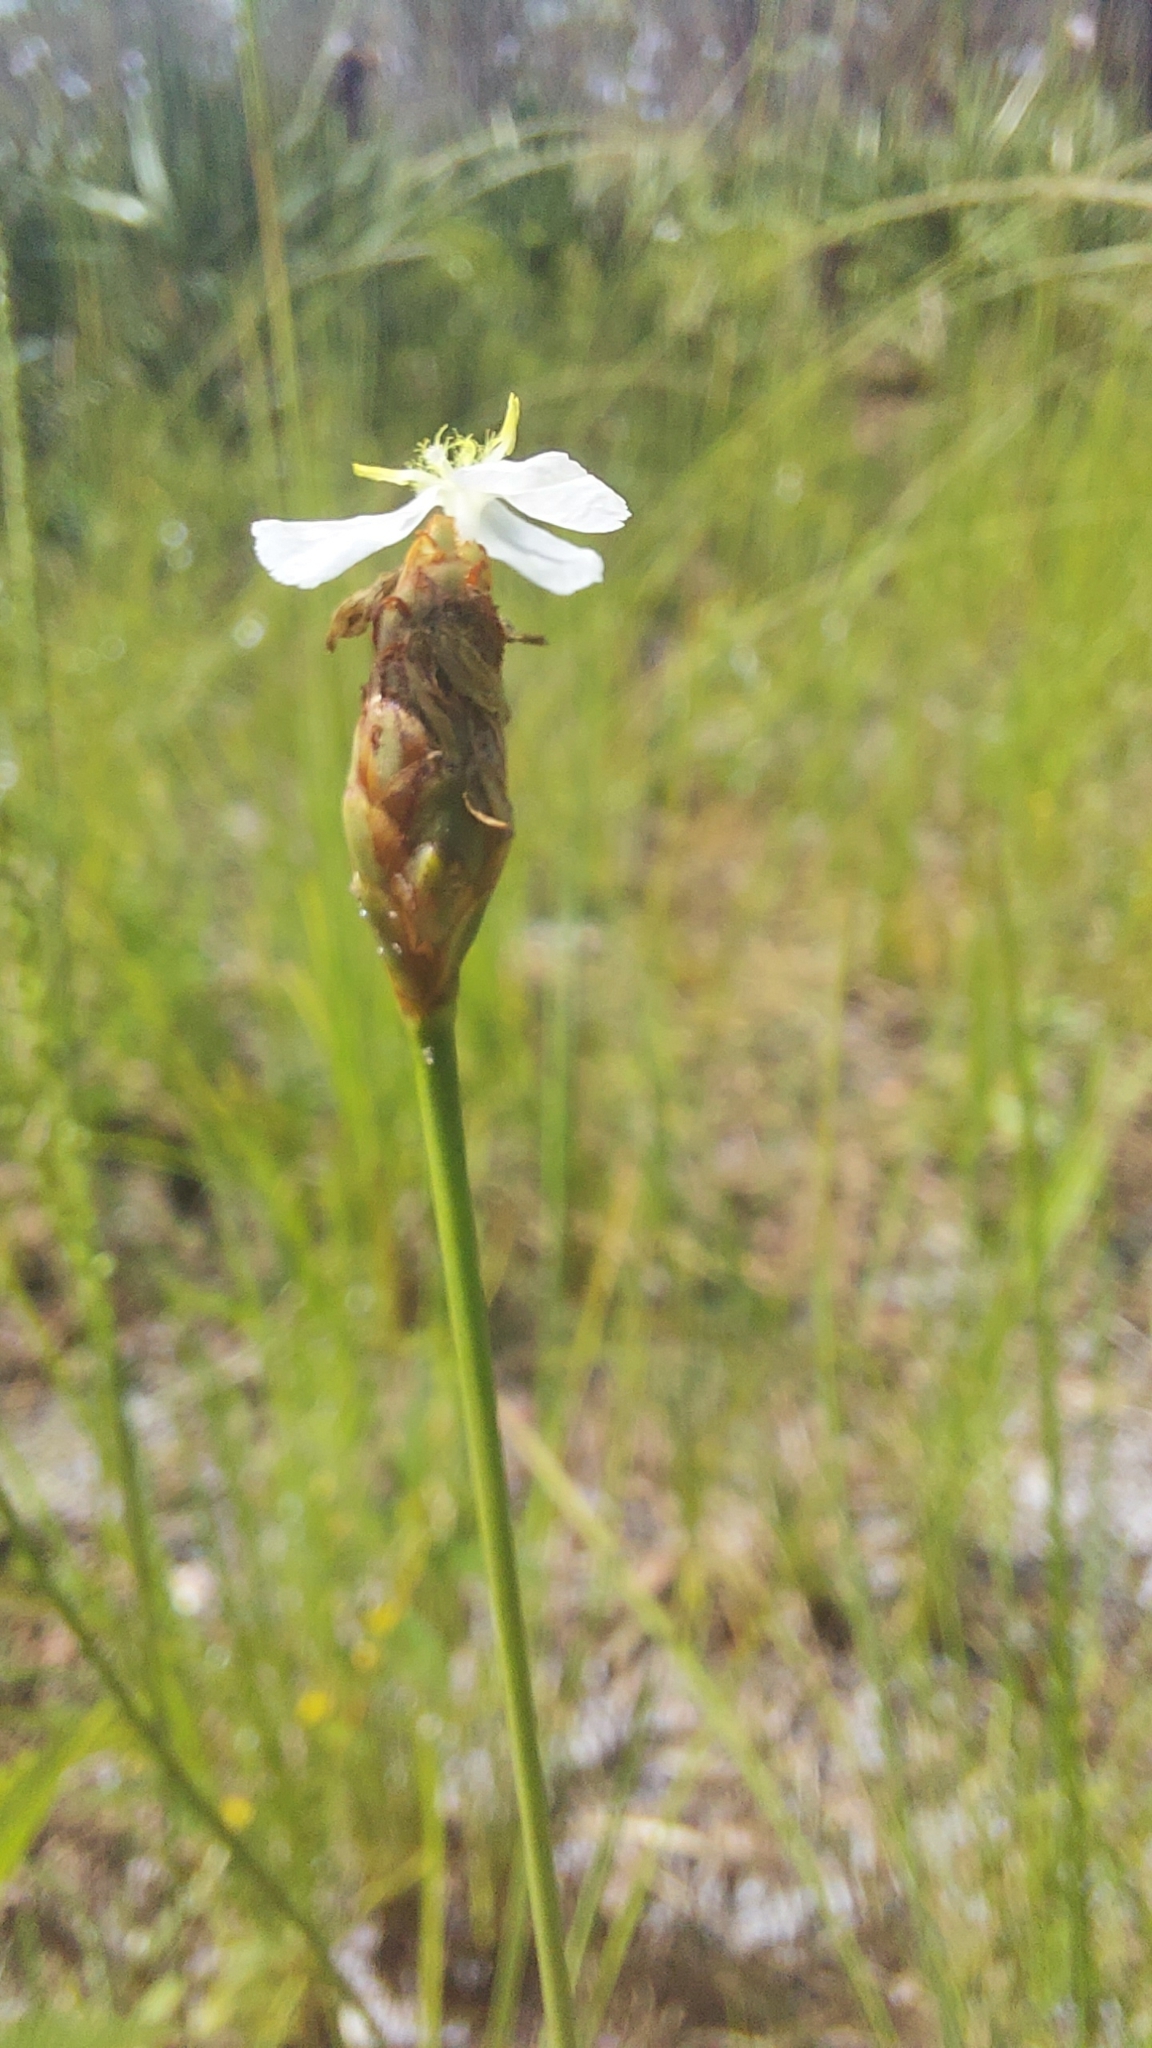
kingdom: Plantae
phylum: Tracheophyta
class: Liliopsida
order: Poales
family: Xyridaceae
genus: Xyris
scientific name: Xyris caroliniana
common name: Carolina yellow-eyed-grass
